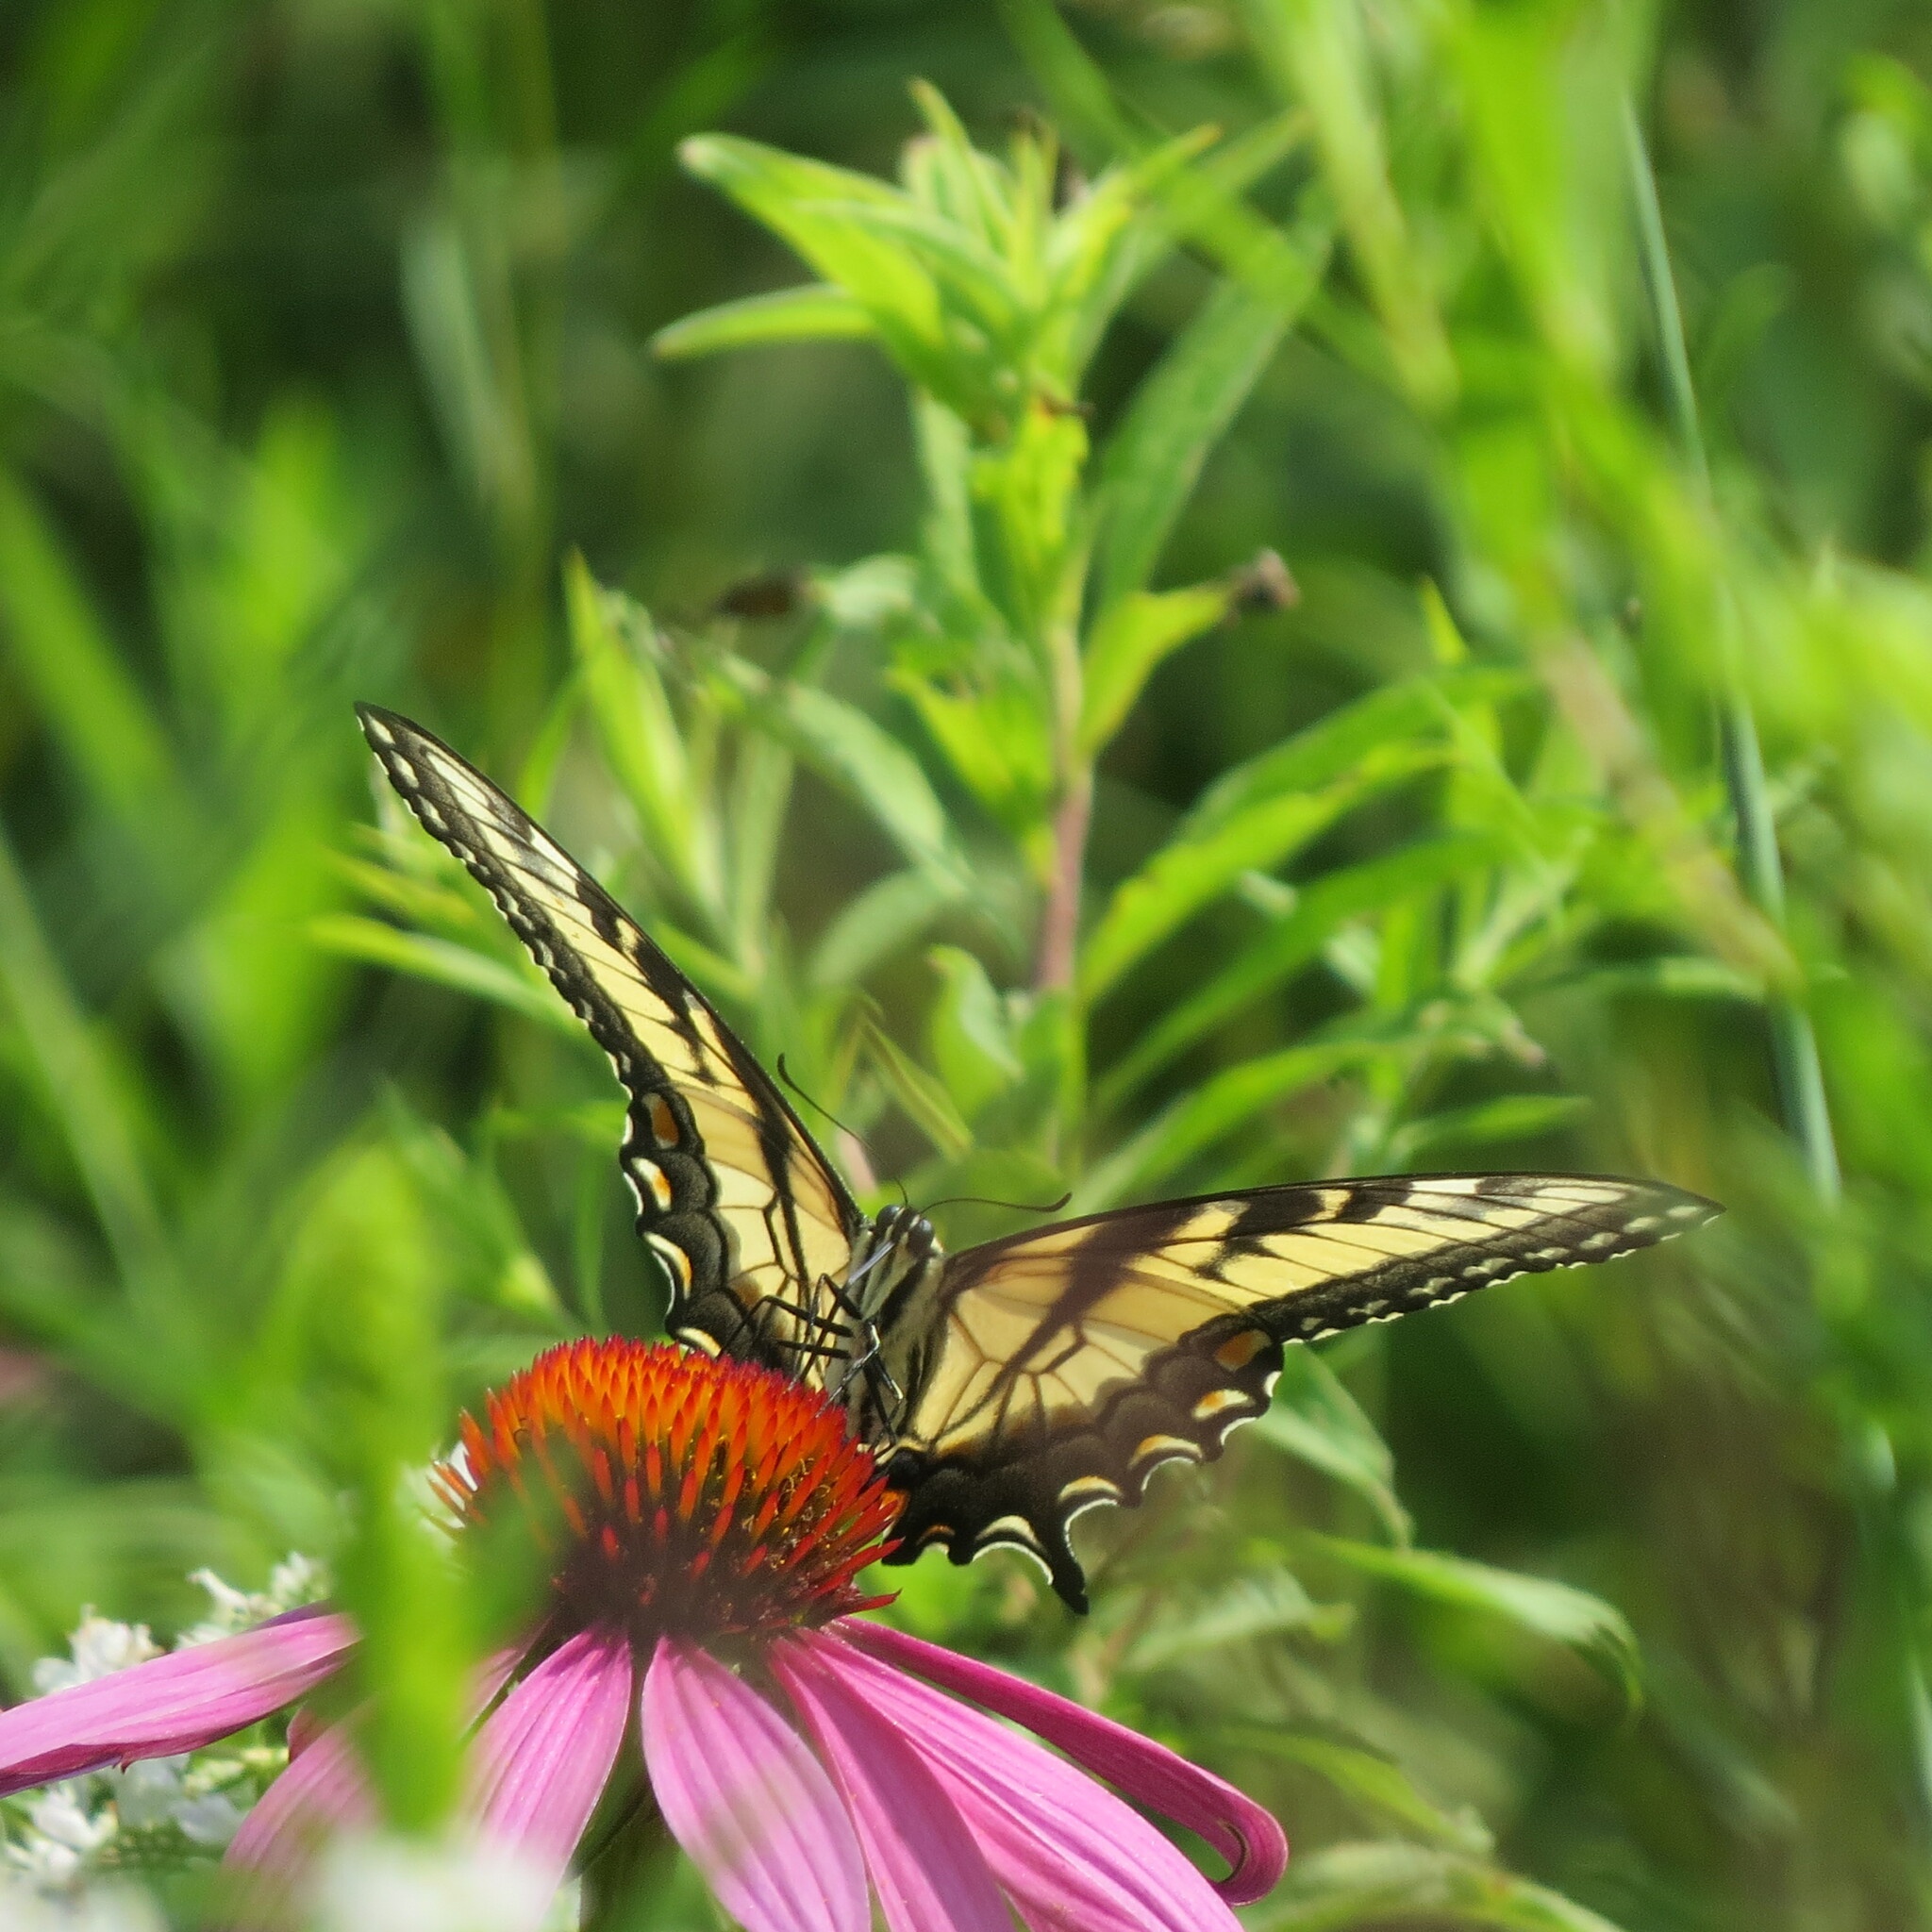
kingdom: Animalia
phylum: Arthropoda
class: Insecta
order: Lepidoptera
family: Papilionidae
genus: Papilio
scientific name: Papilio glaucus
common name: Tiger swallowtail
